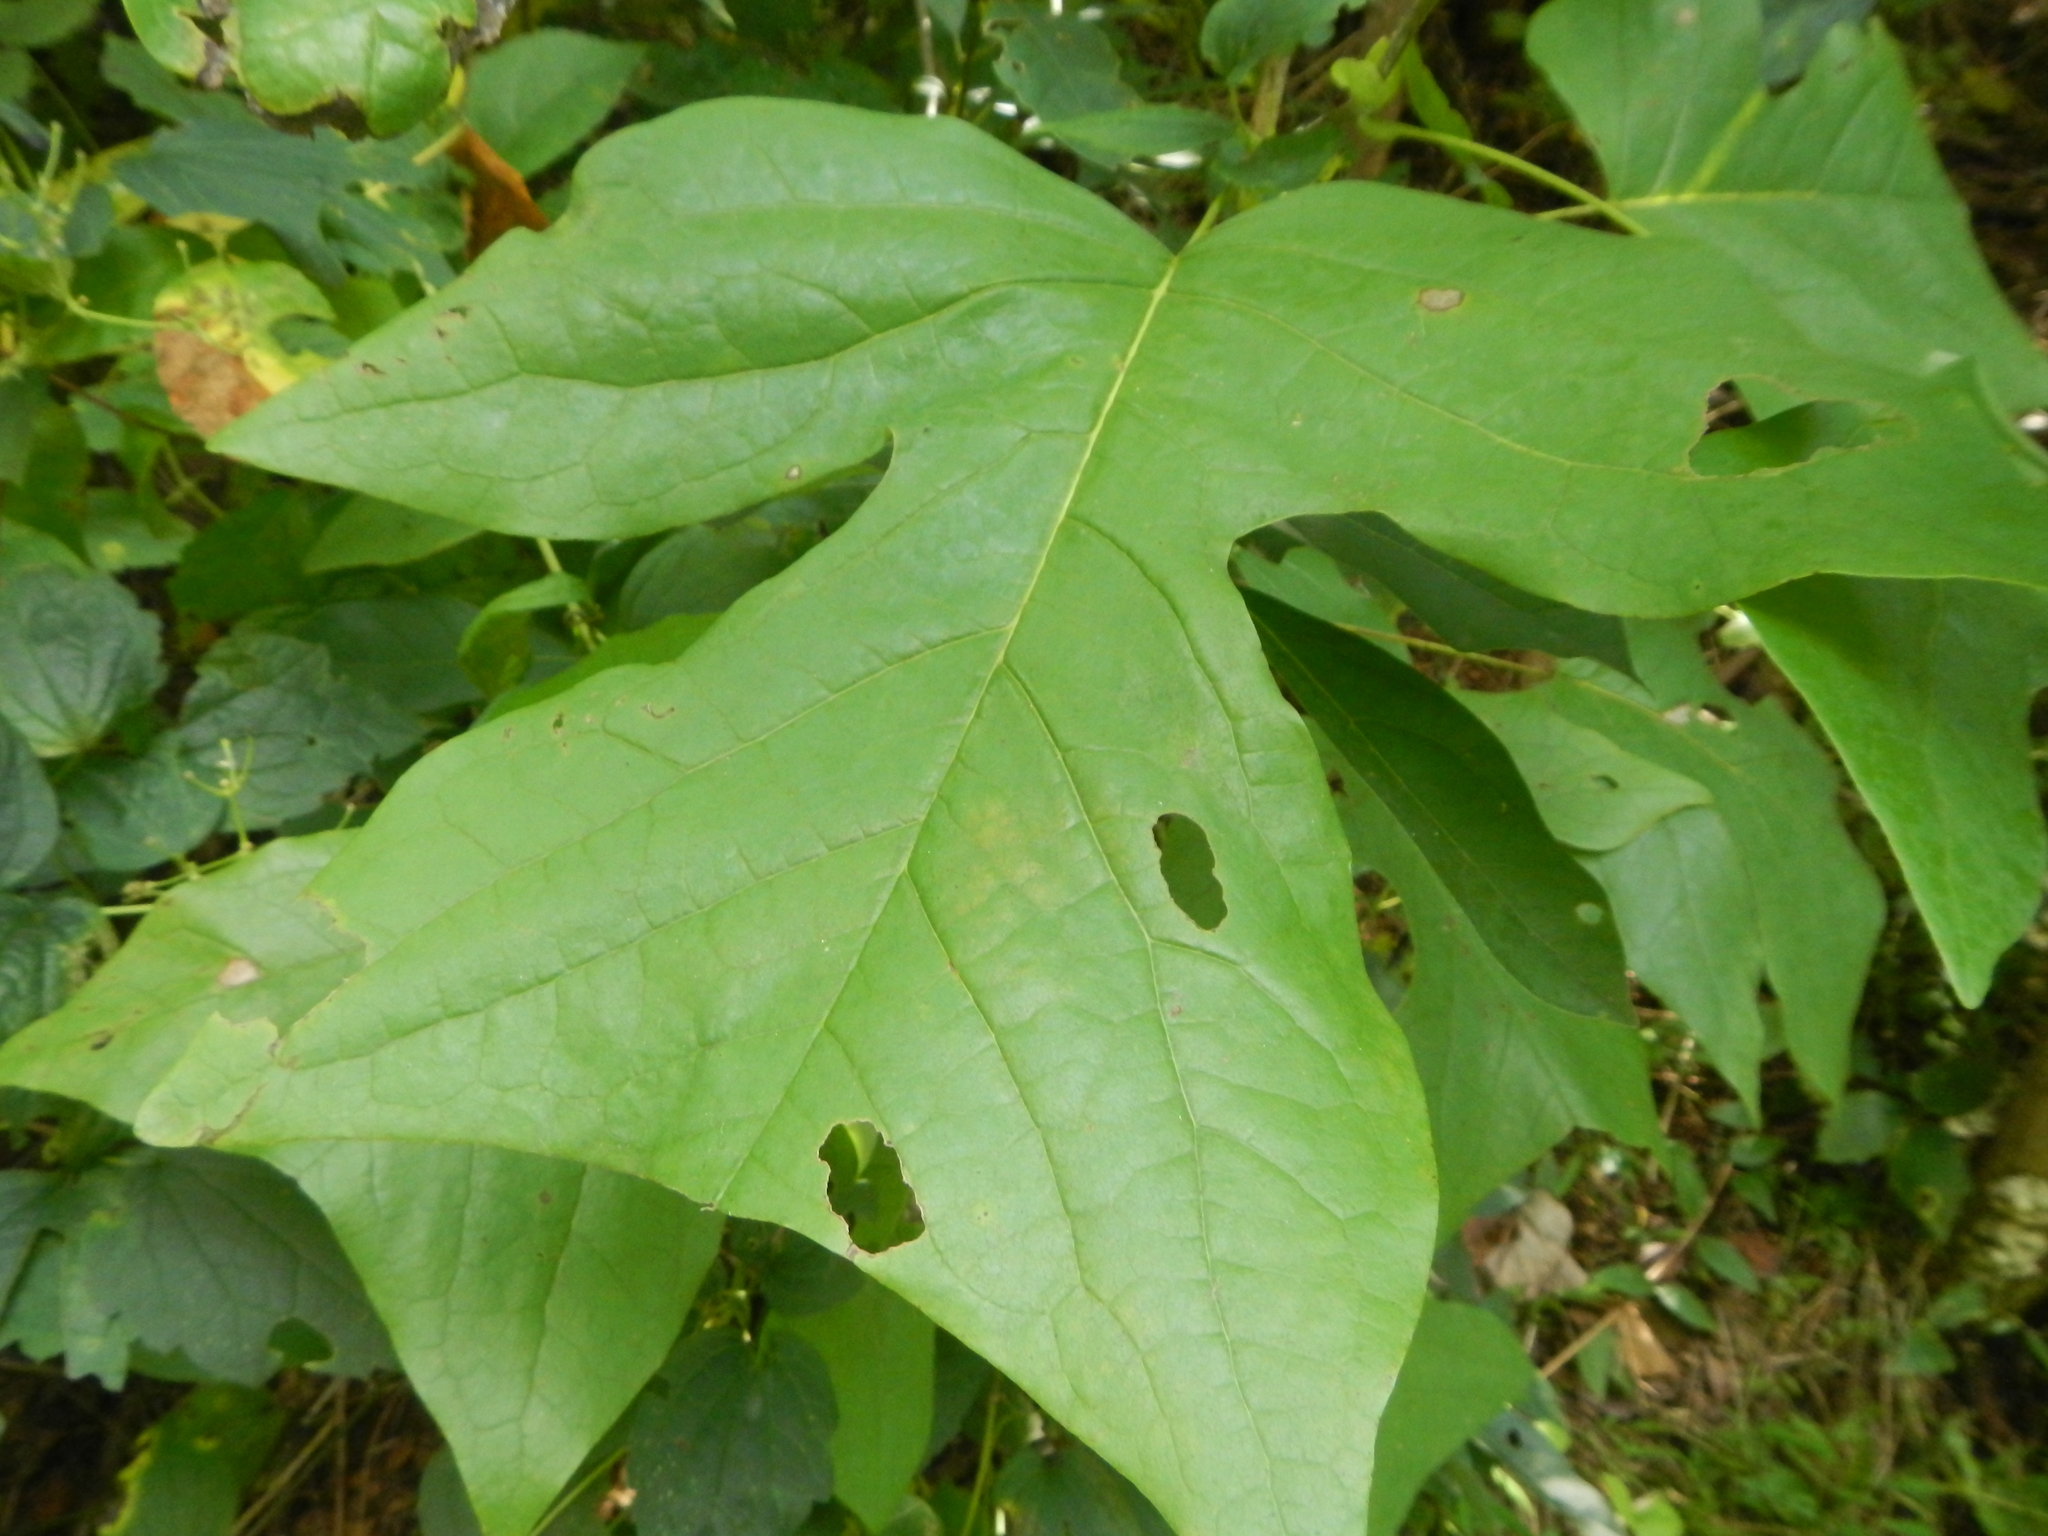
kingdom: Plantae
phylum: Tracheophyta
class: Magnoliopsida
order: Magnoliales
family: Magnoliaceae
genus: Liriodendron
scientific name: Liriodendron tulipifera
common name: Tulip tree
